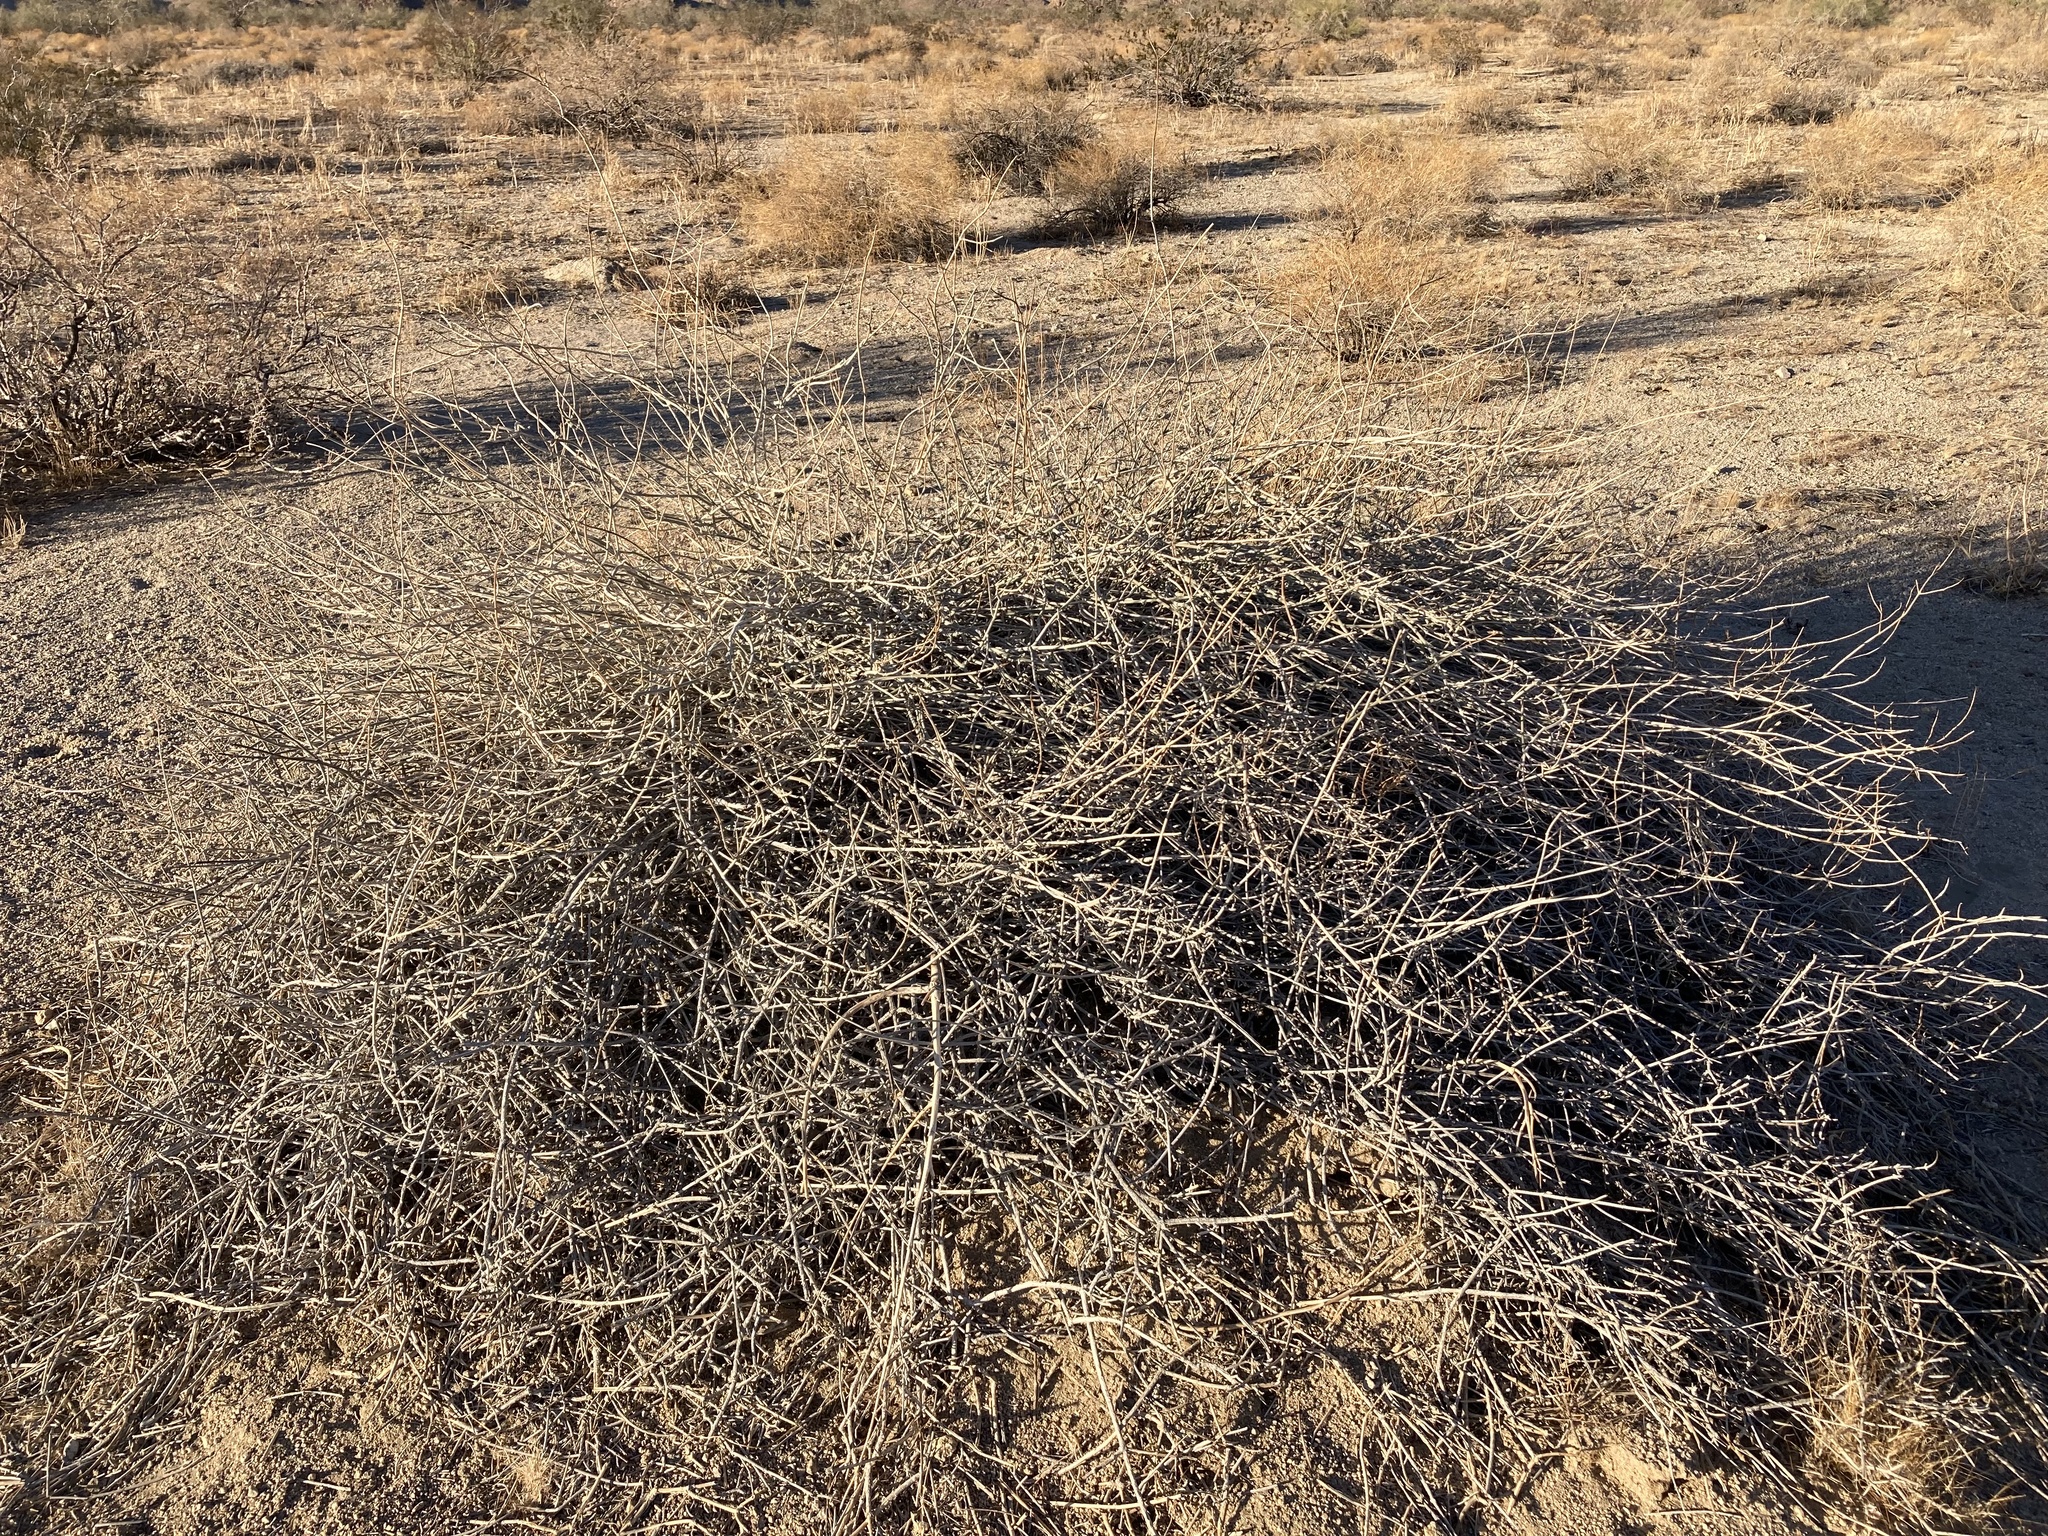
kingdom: Plantae
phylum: Tracheophyta
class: Magnoliopsida
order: Lamiales
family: Acanthaceae
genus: Justicia
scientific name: Justicia californica
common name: Chuparosa-honeysuckle
